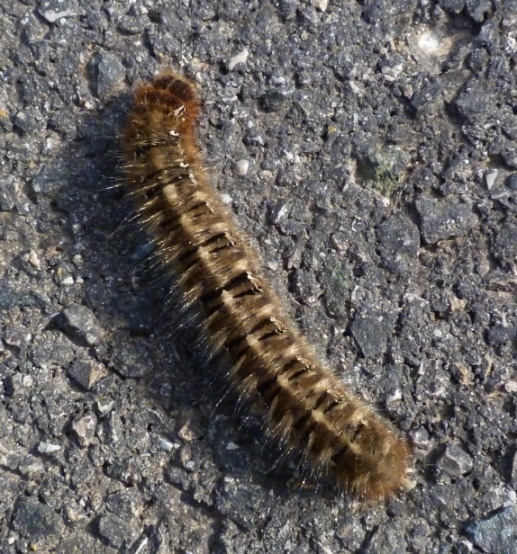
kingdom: Animalia
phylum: Arthropoda
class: Insecta
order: Lepidoptera
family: Lasiocampidae
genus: Lasiocampa
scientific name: Lasiocampa quercus
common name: Oak eggar
